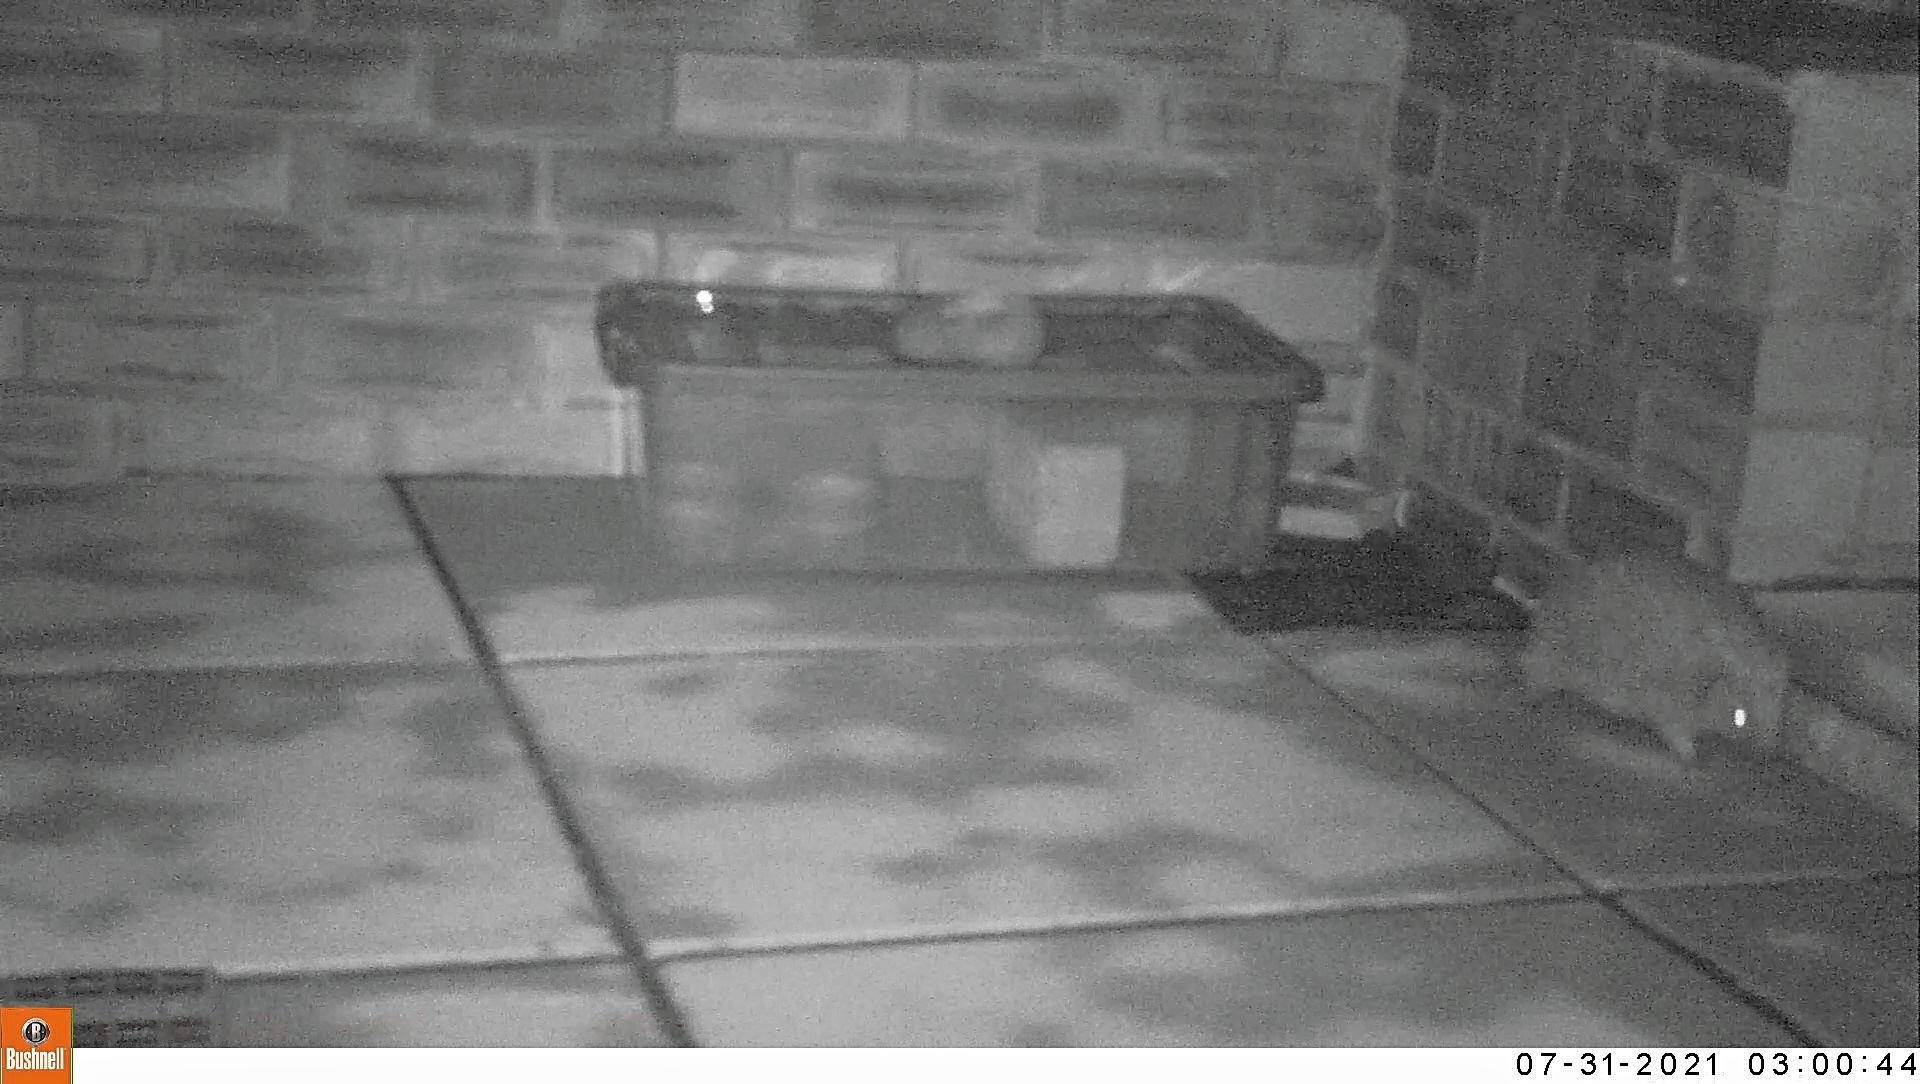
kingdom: Animalia
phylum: Chordata
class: Mammalia
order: Erinaceomorpha
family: Erinaceidae
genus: Erinaceus
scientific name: Erinaceus europaeus
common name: West european hedgehog
